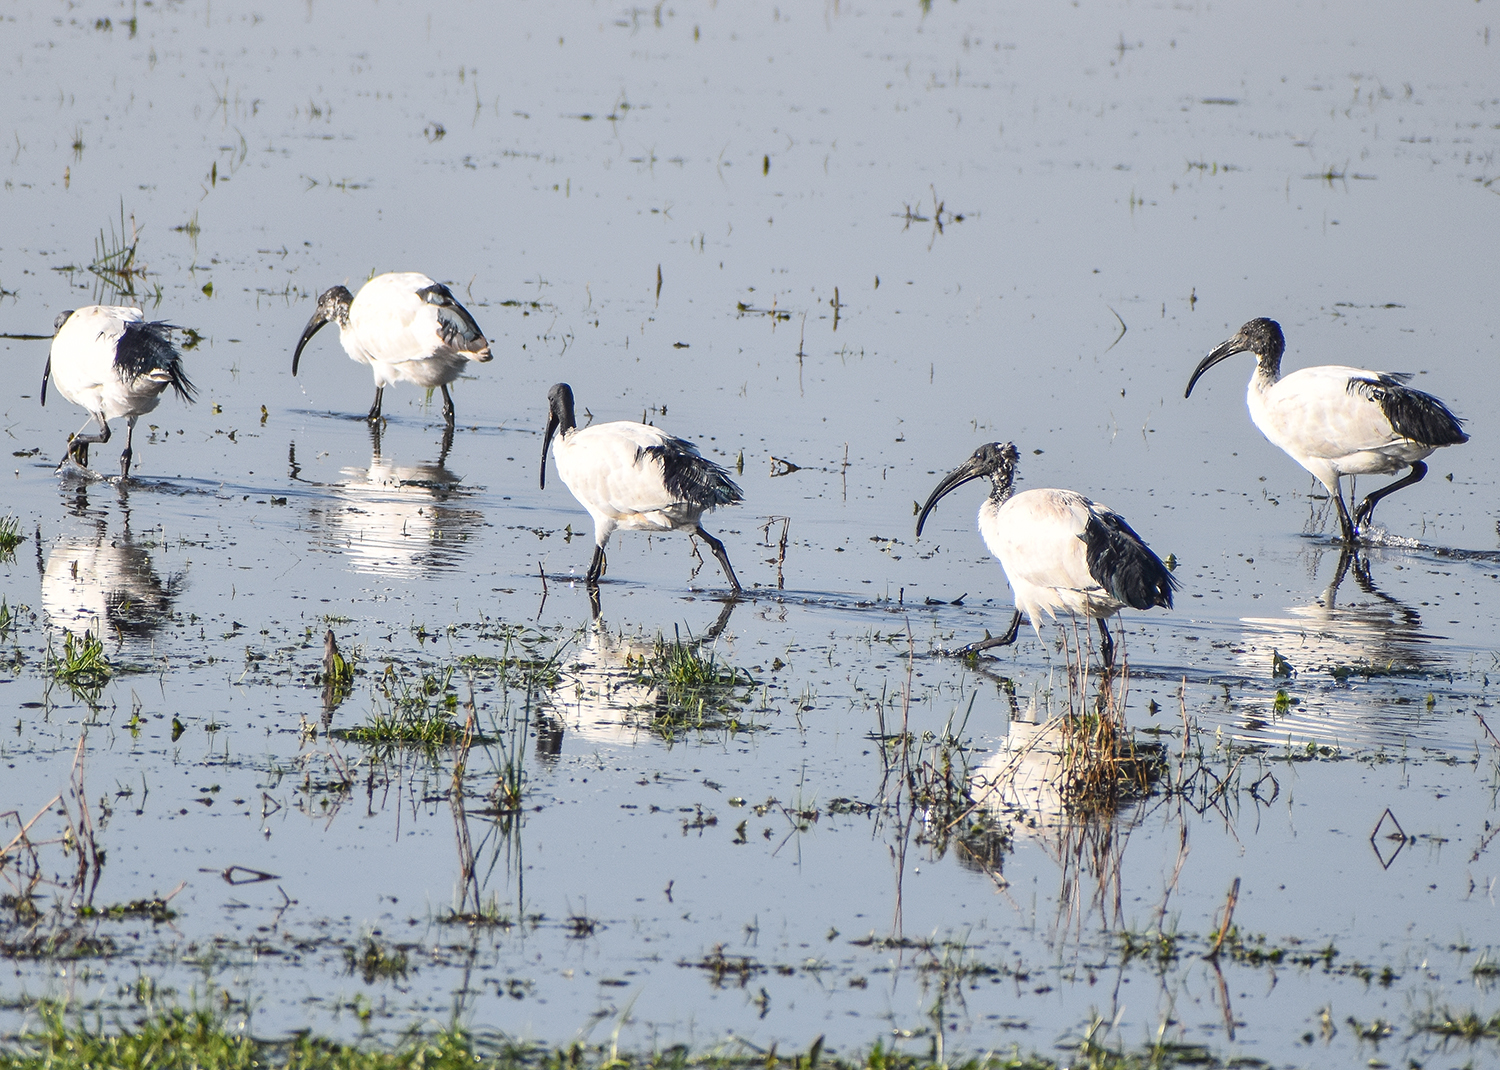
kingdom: Animalia
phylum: Chordata
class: Aves
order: Pelecaniformes
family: Threskiornithidae
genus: Threskiornis
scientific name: Threskiornis aethiopicus
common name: Sacred ibis
